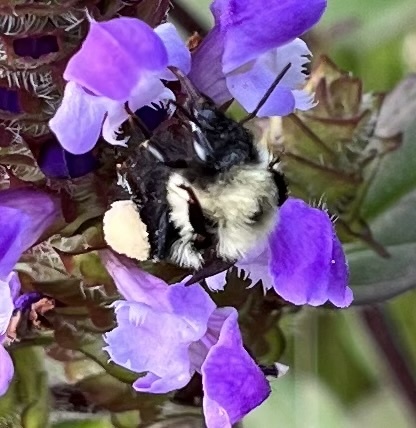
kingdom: Animalia
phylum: Arthropoda
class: Insecta
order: Hymenoptera
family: Apidae
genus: Bombus
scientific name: Bombus bimaculatus
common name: Two-spotted bumble bee
